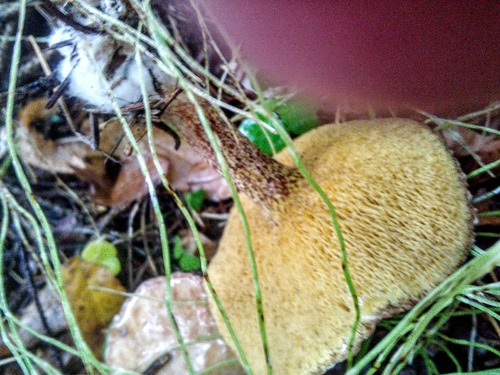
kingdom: Fungi
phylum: Basidiomycota
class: Agaricomycetes
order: Boletales
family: Suillaceae
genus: Suillus
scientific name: Suillus acidus
